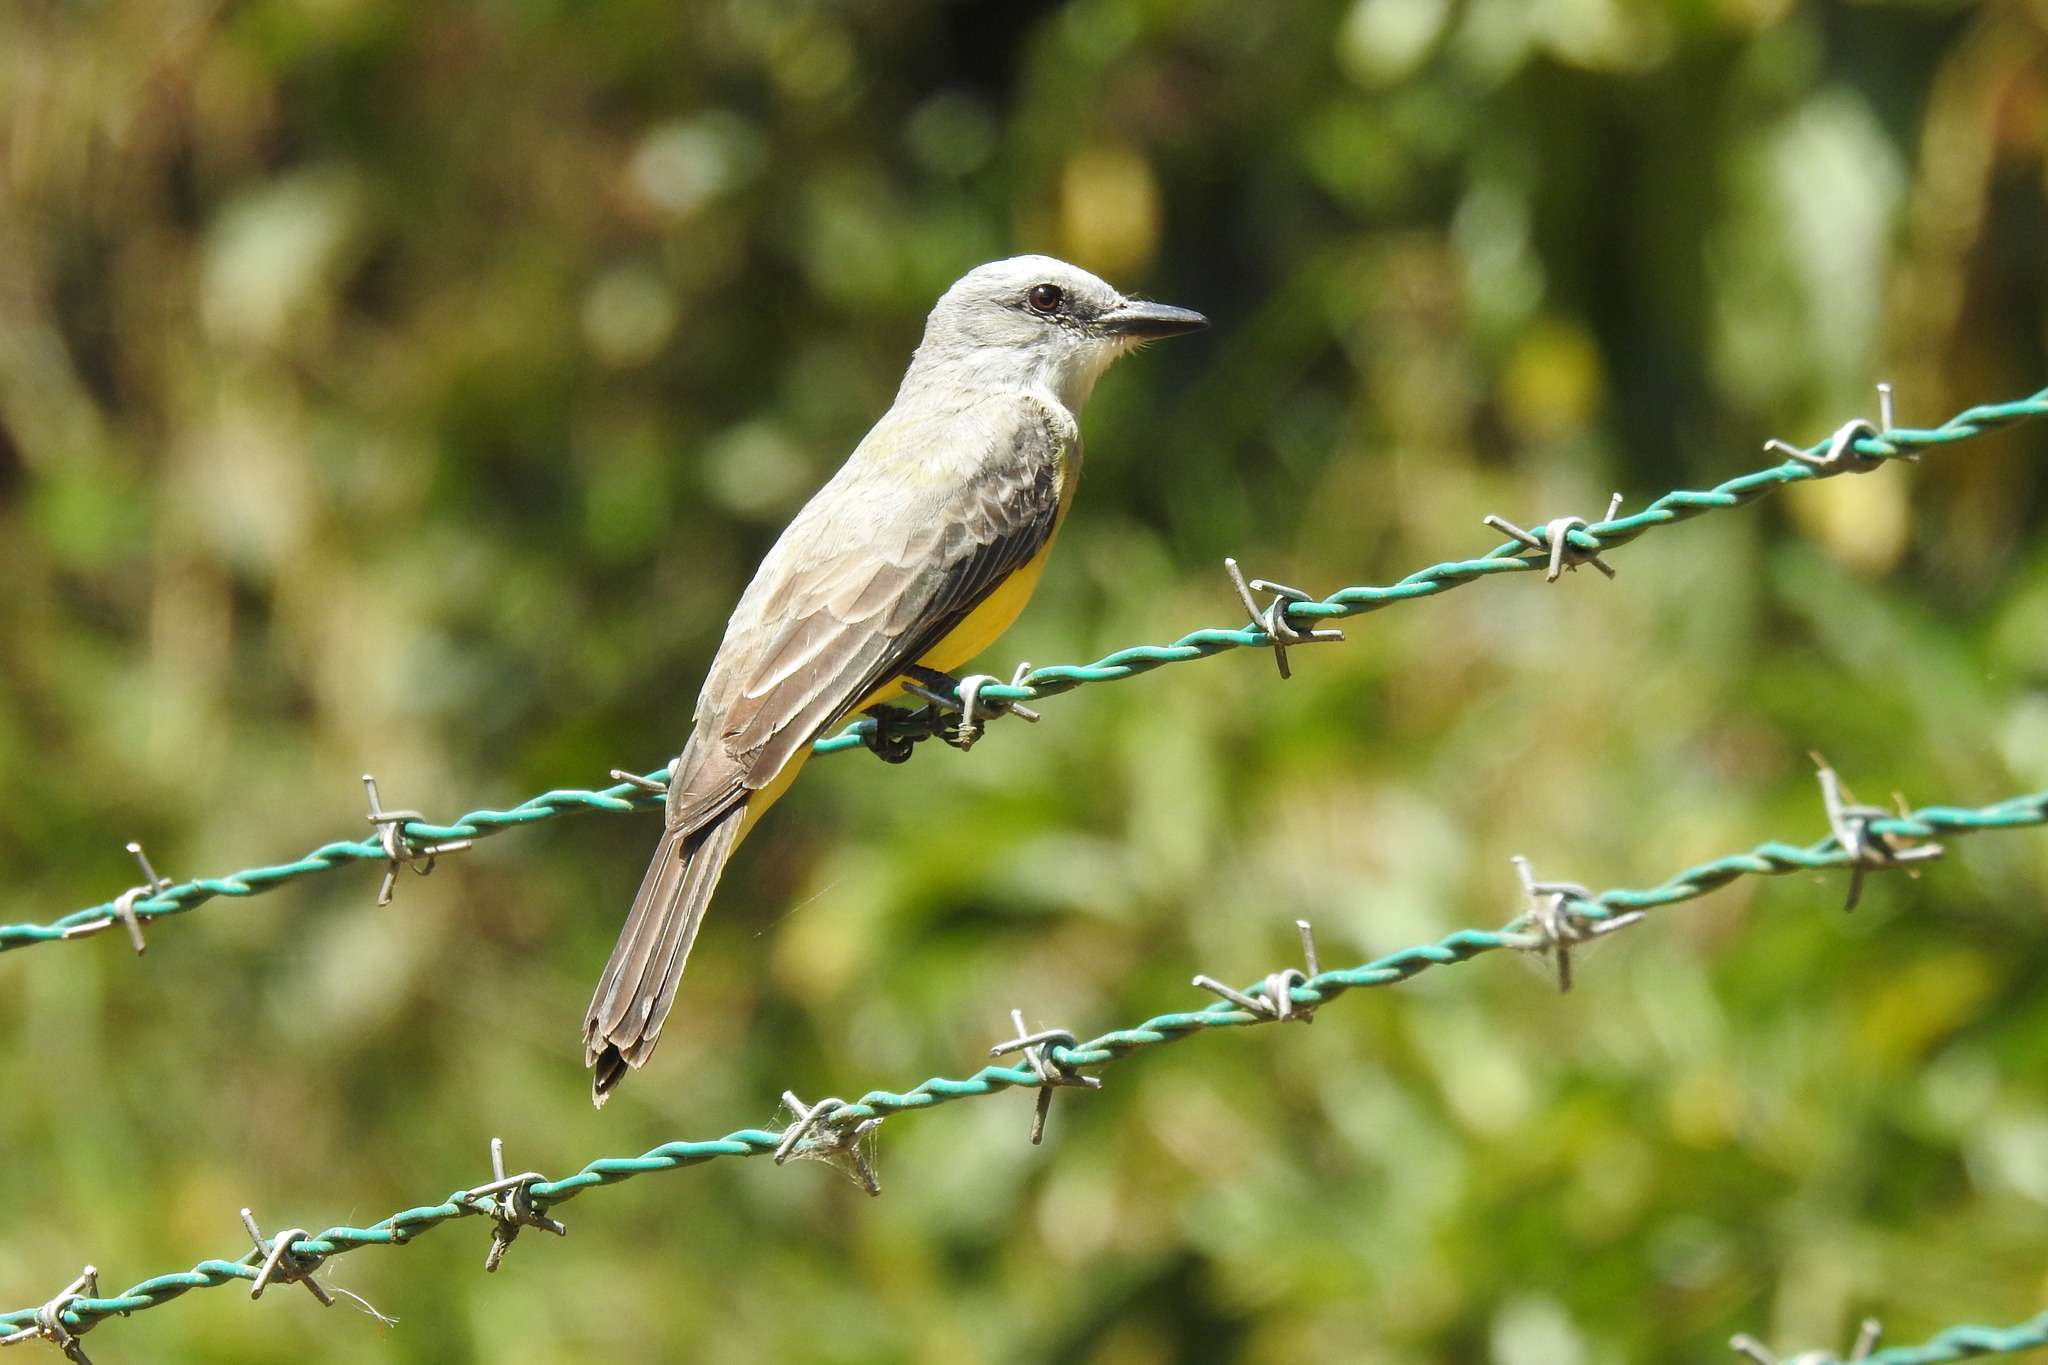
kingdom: Animalia
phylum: Chordata
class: Aves
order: Passeriformes
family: Tyrannidae
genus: Tyrannus
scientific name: Tyrannus melancholicus
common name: Tropical kingbird
